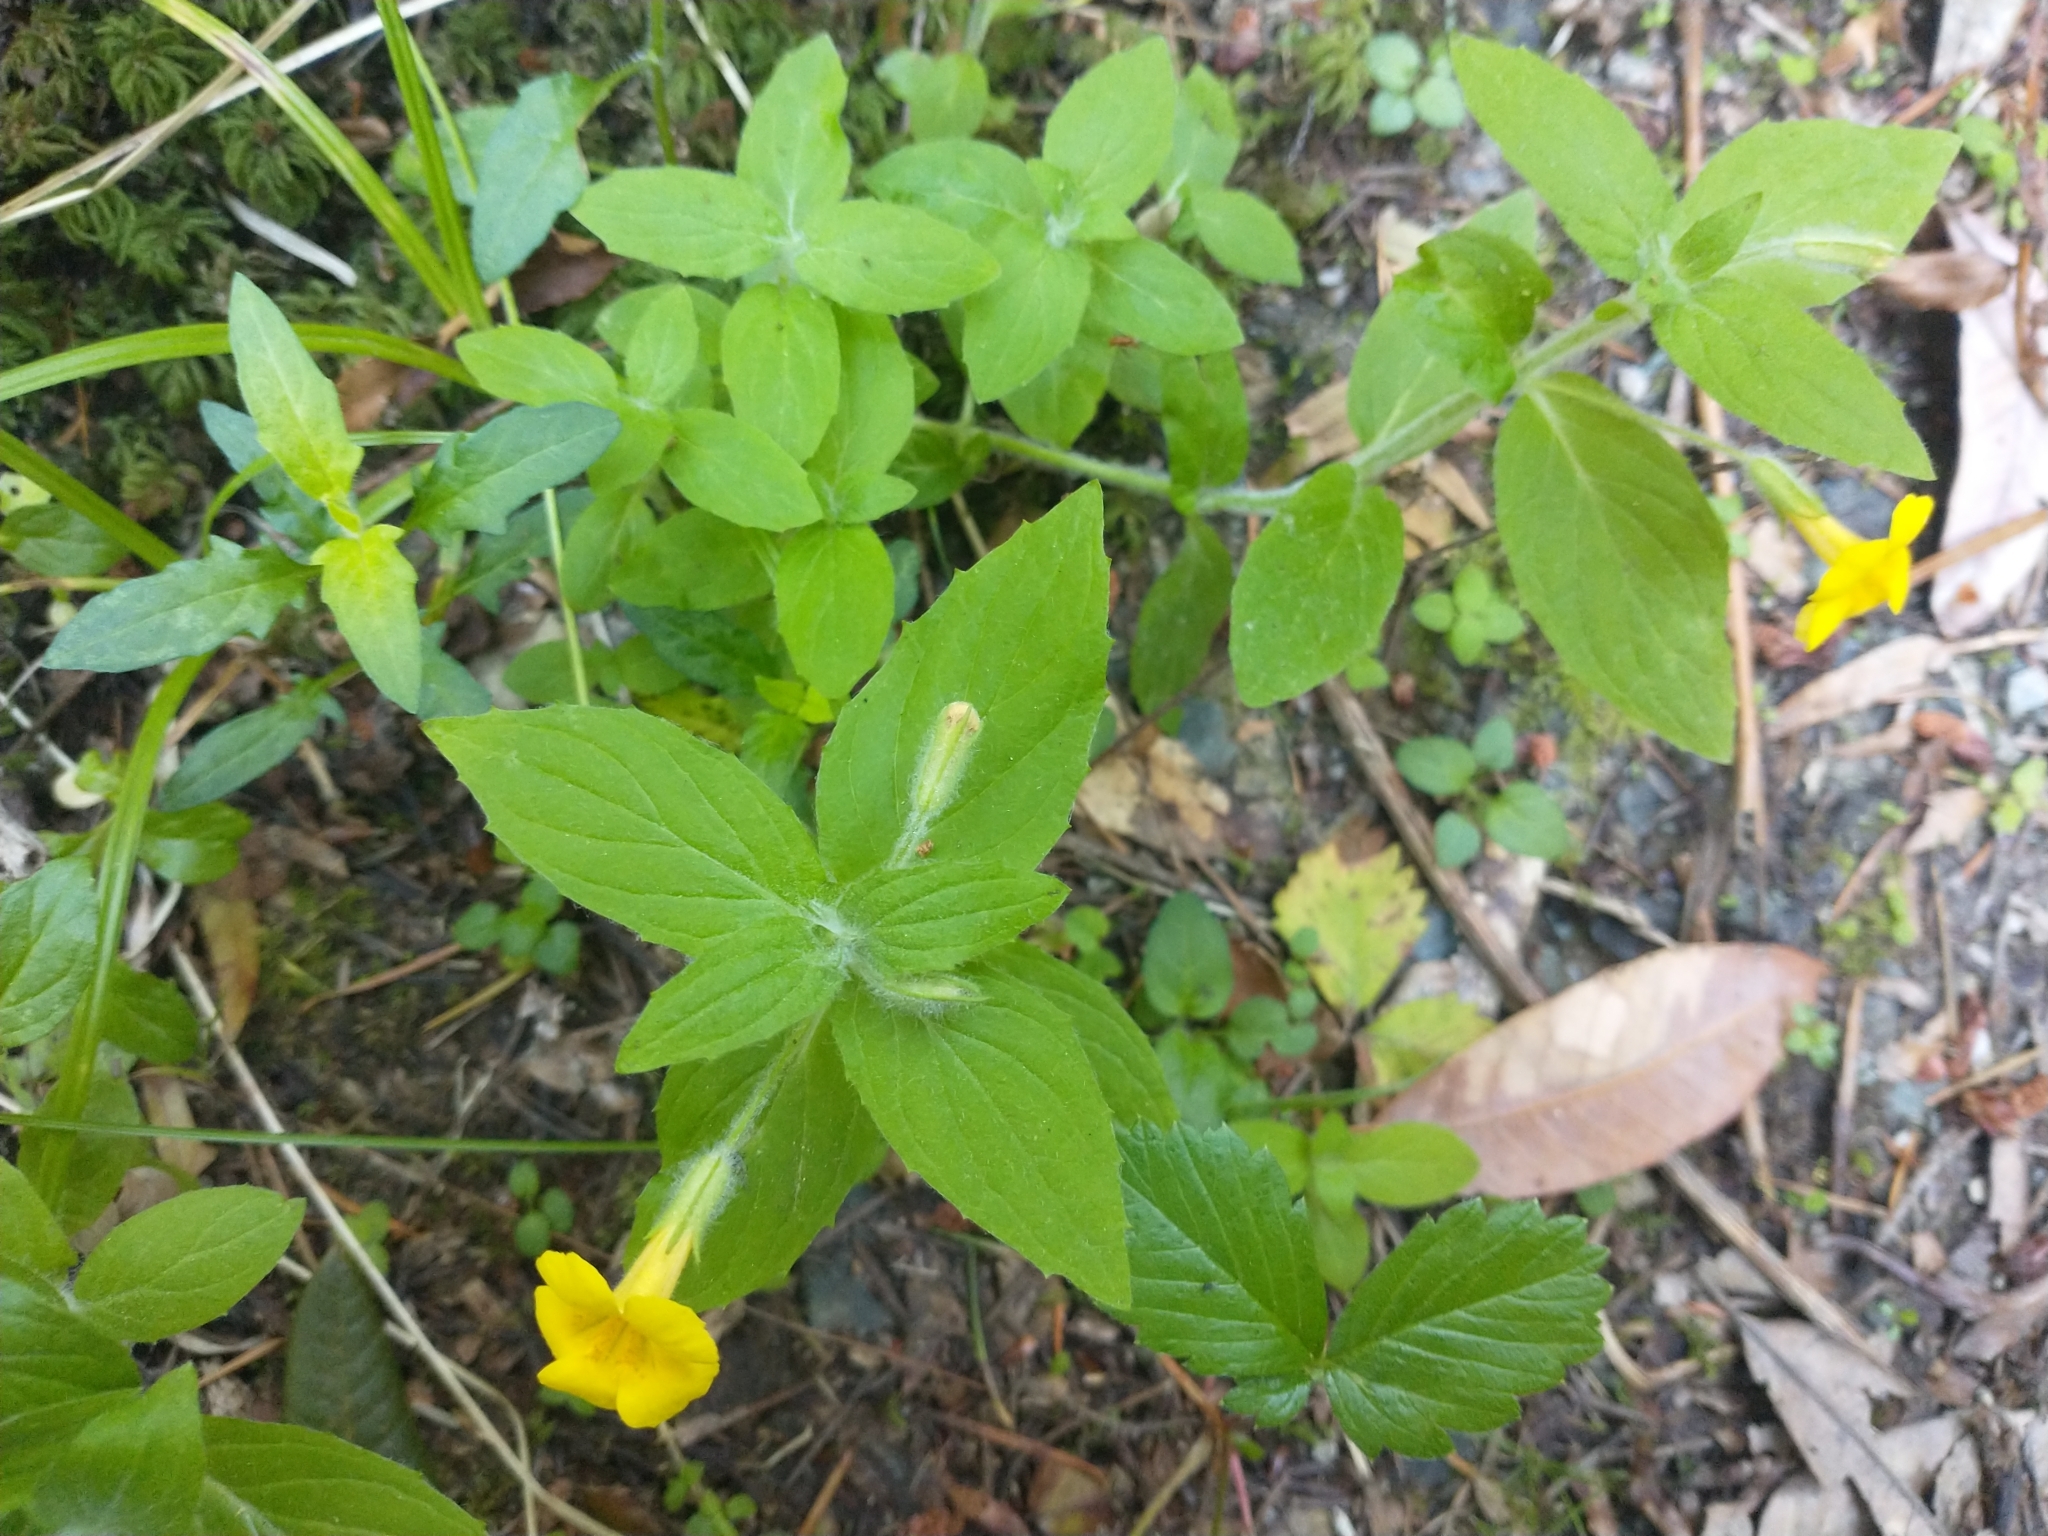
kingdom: Plantae
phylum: Tracheophyta
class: Magnoliopsida
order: Lamiales
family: Phrymaceae
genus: Erythranthe
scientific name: Erythranthe ptilota
